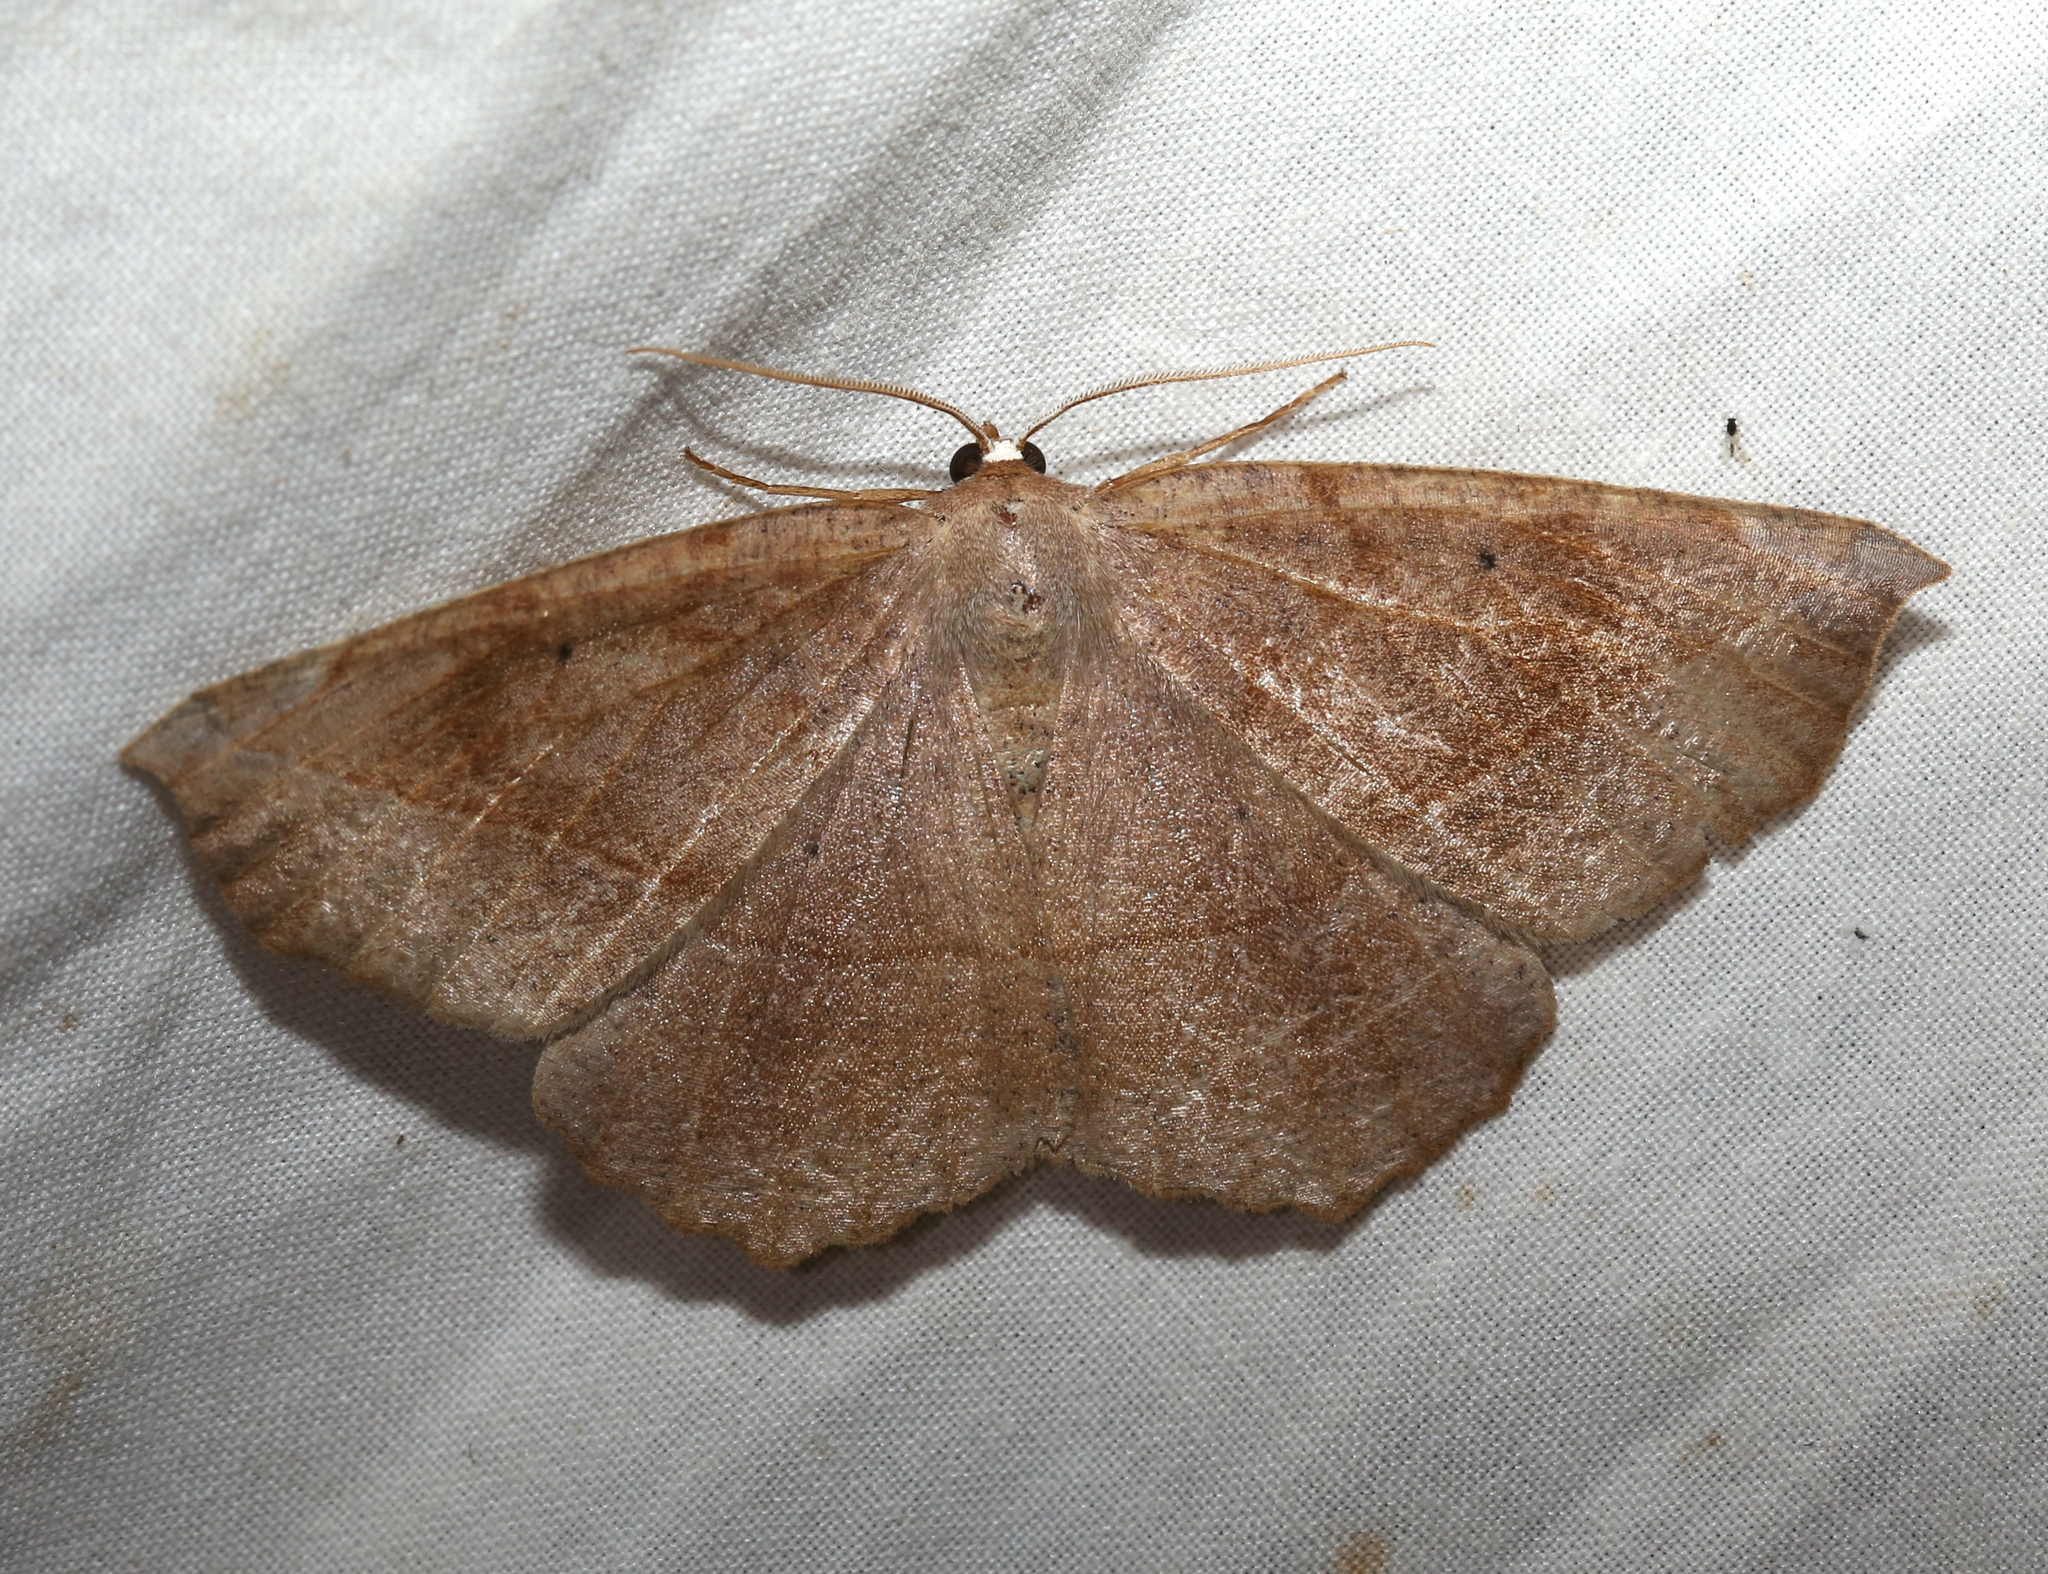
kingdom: Animalia
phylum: Arthropoda
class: Insecta
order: Lepidoptera
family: Geometridae
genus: Eutrapela
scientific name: Eutrapela clemataria
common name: Curved-toothed geometer
